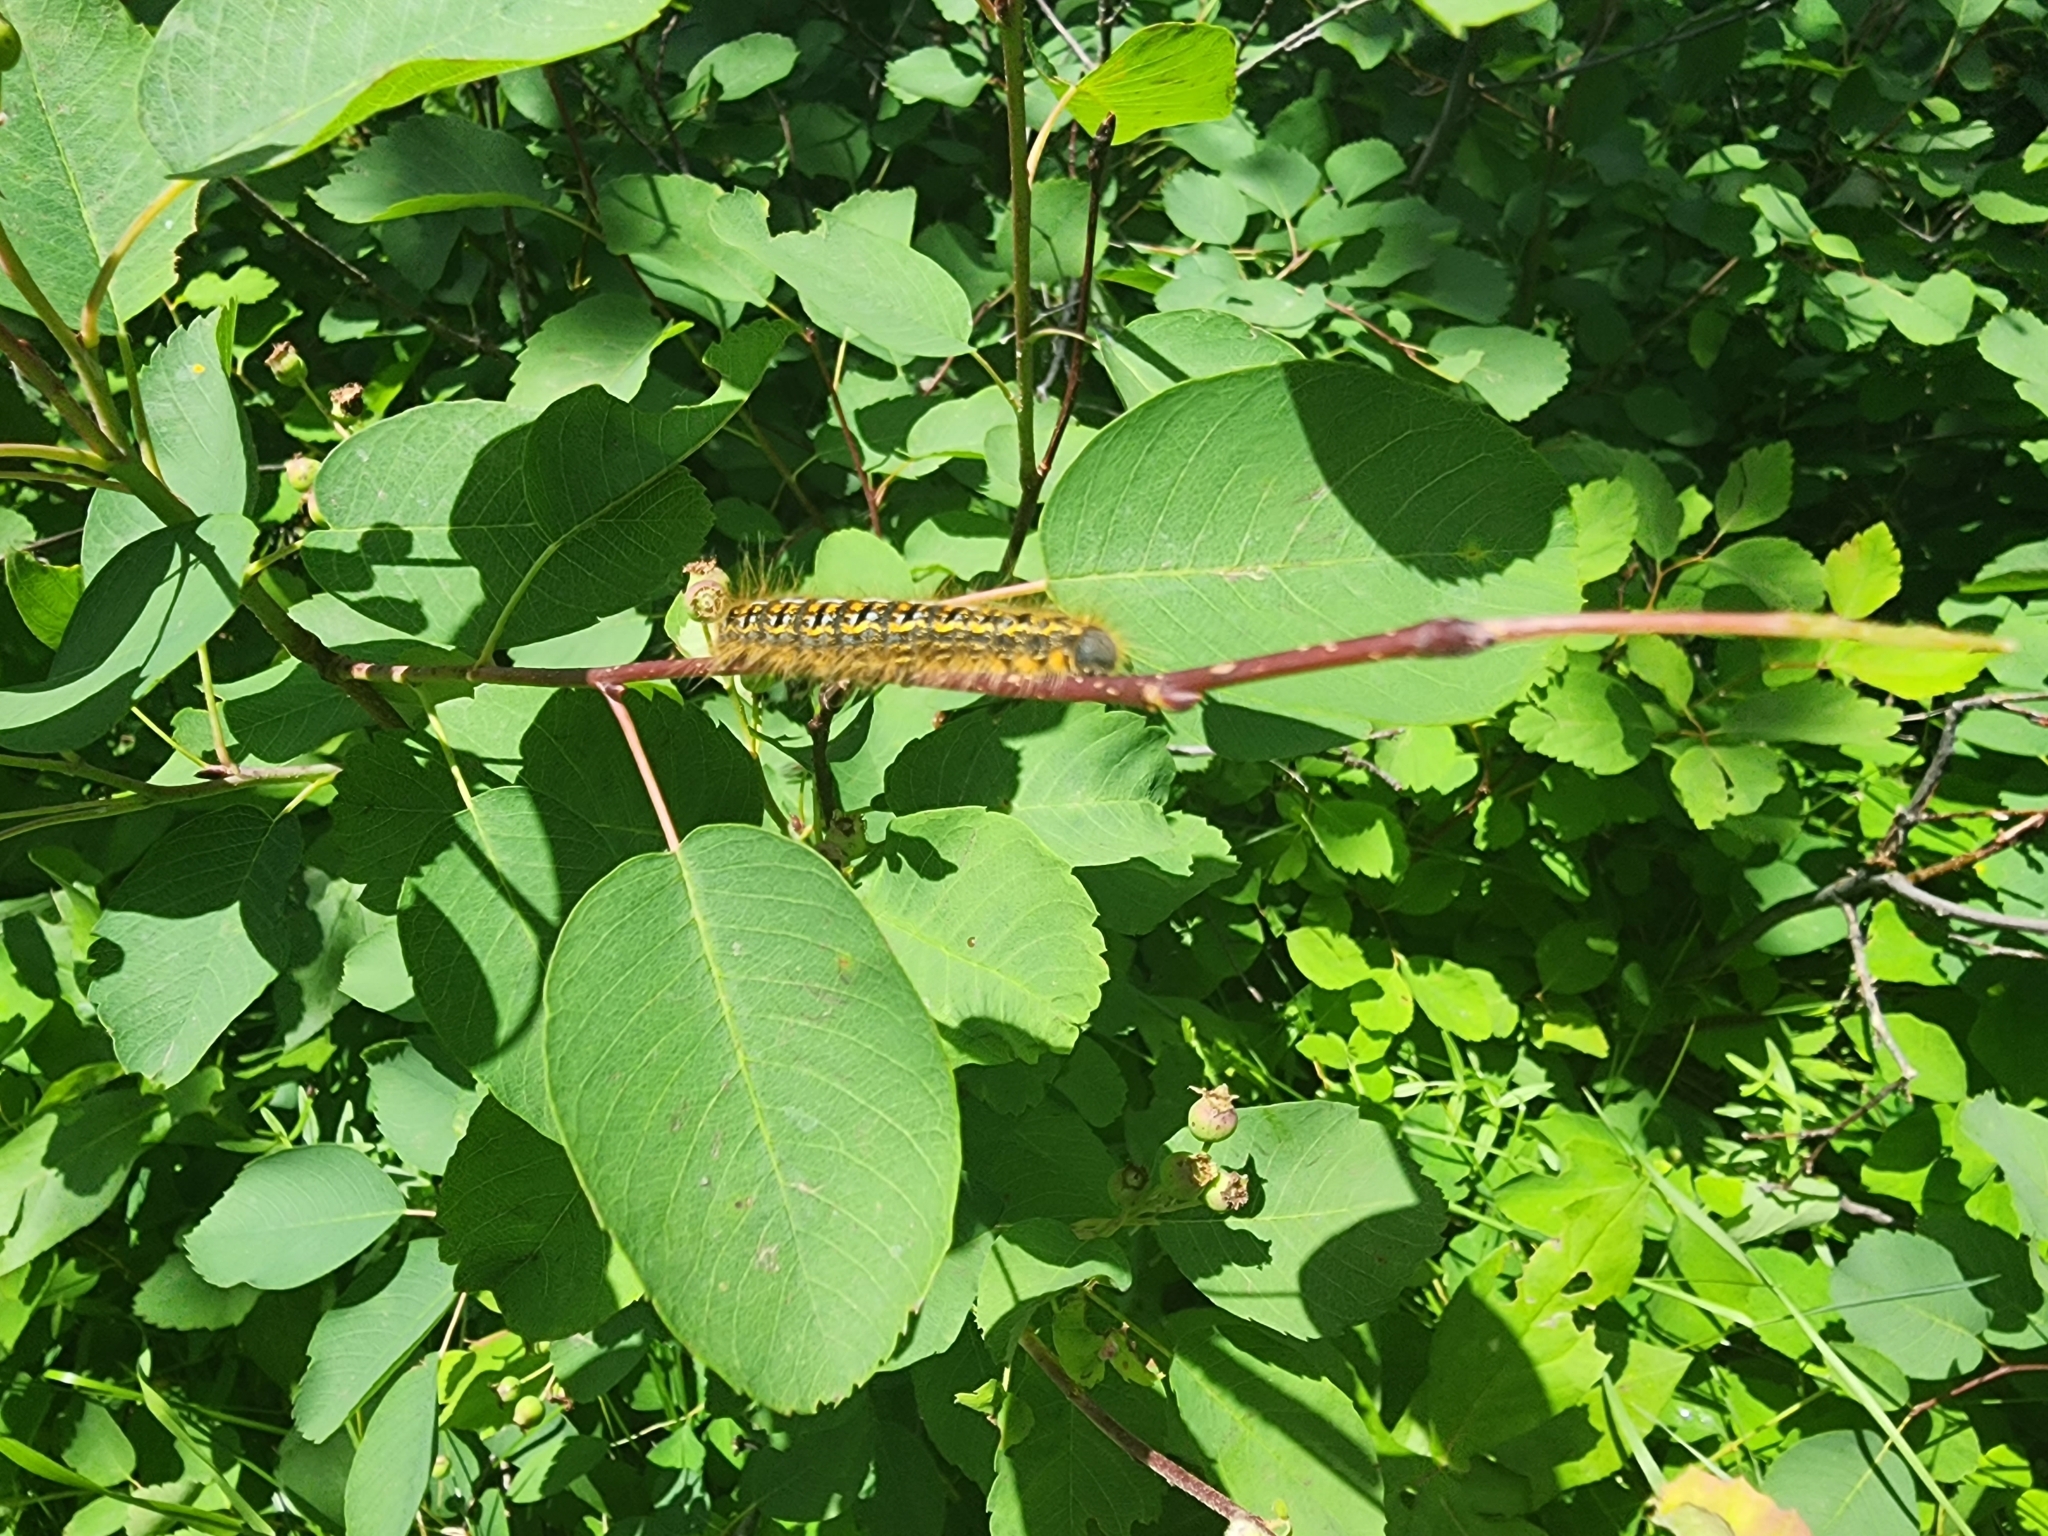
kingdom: Animalia
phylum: Arthropoda
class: Insecta
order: Lepidoptera
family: Lasiocampidae
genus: Malacosoma
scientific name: Malacosoma californica
